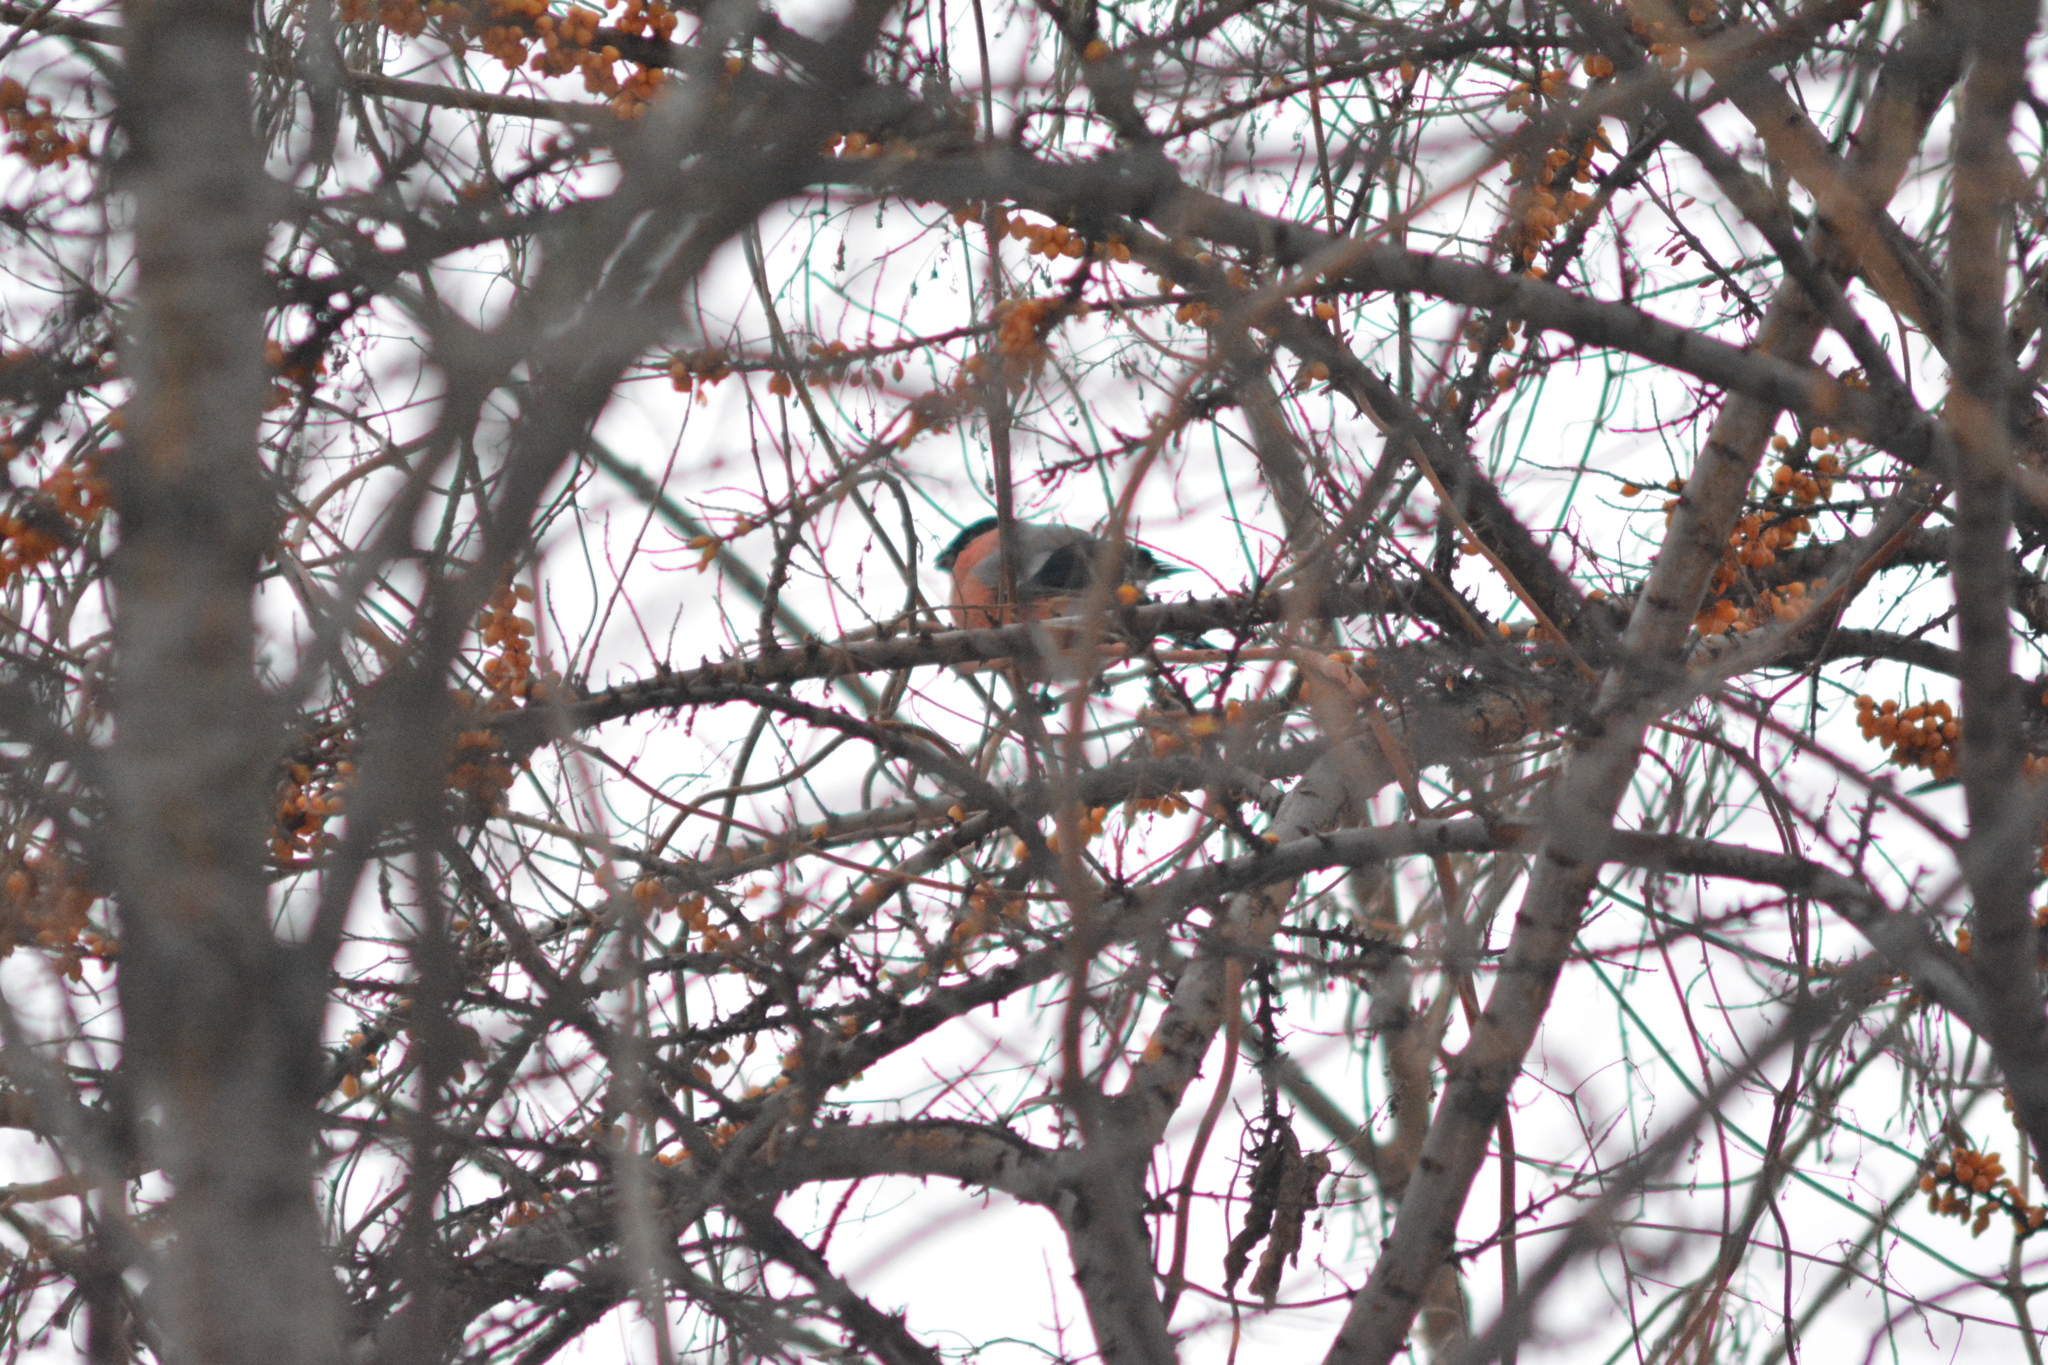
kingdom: Animalia
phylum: Chordata
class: Aves
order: Passeriformes
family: Fringillidae
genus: Pyrrhula
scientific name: Pyrrhula pyrrhula
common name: Eurasian bullfinch
